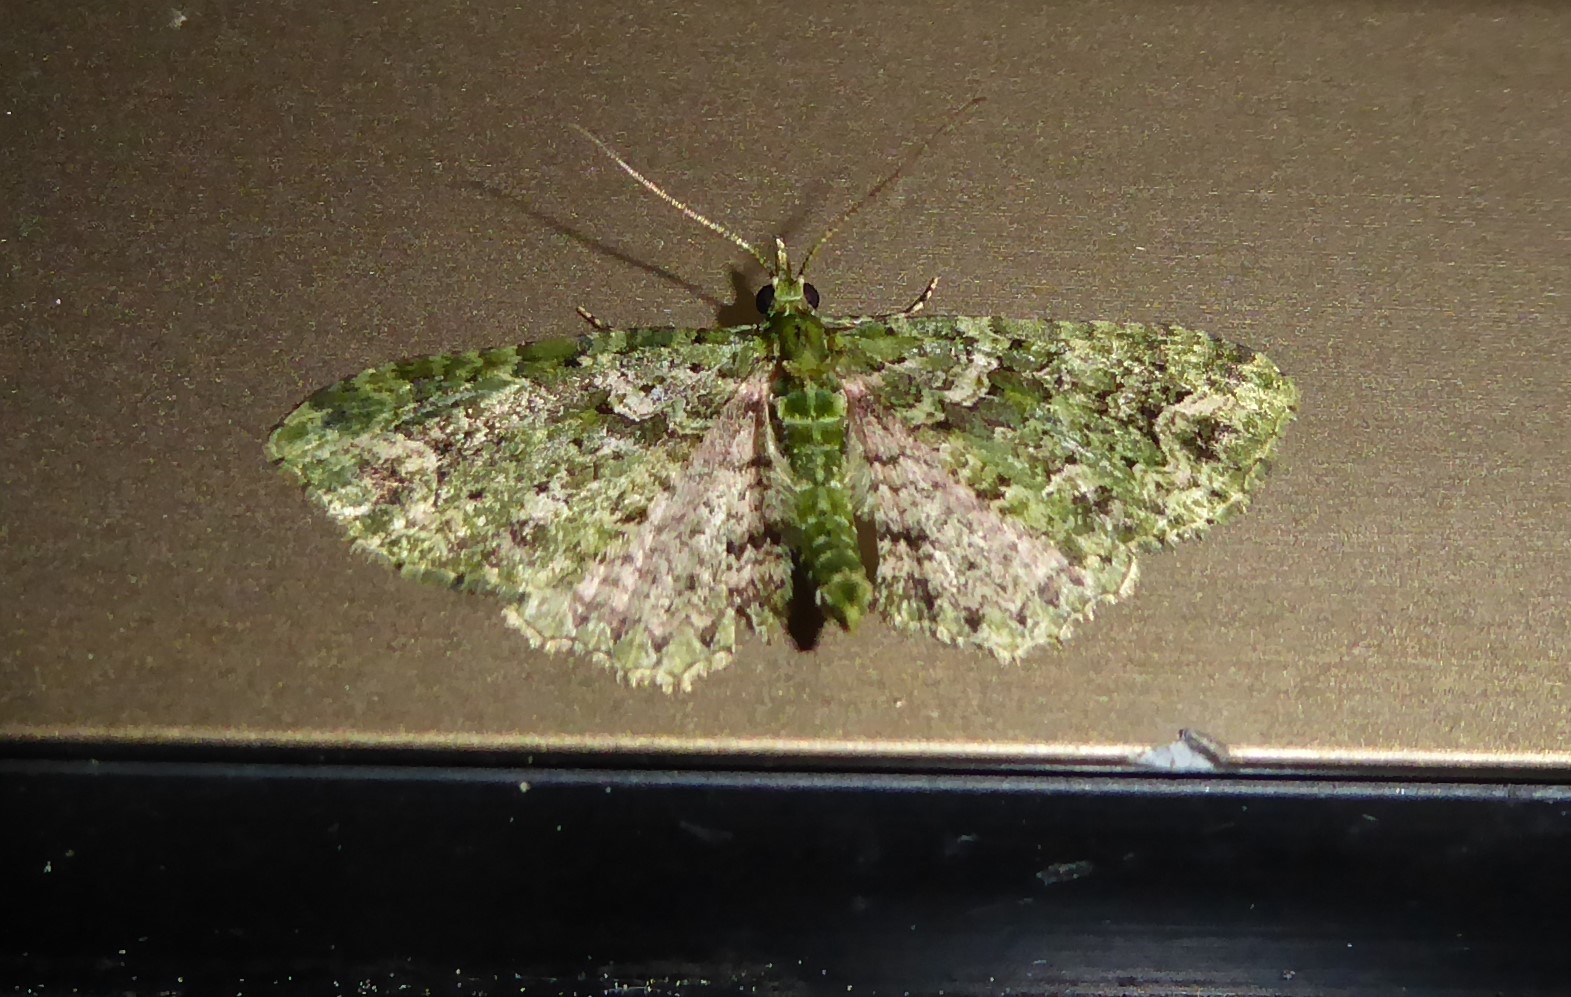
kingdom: Animalia
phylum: Arthropoda
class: Insecta
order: Lepidoptera
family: Geometridae
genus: Pasiphila
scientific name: Pasiphila muscosata
